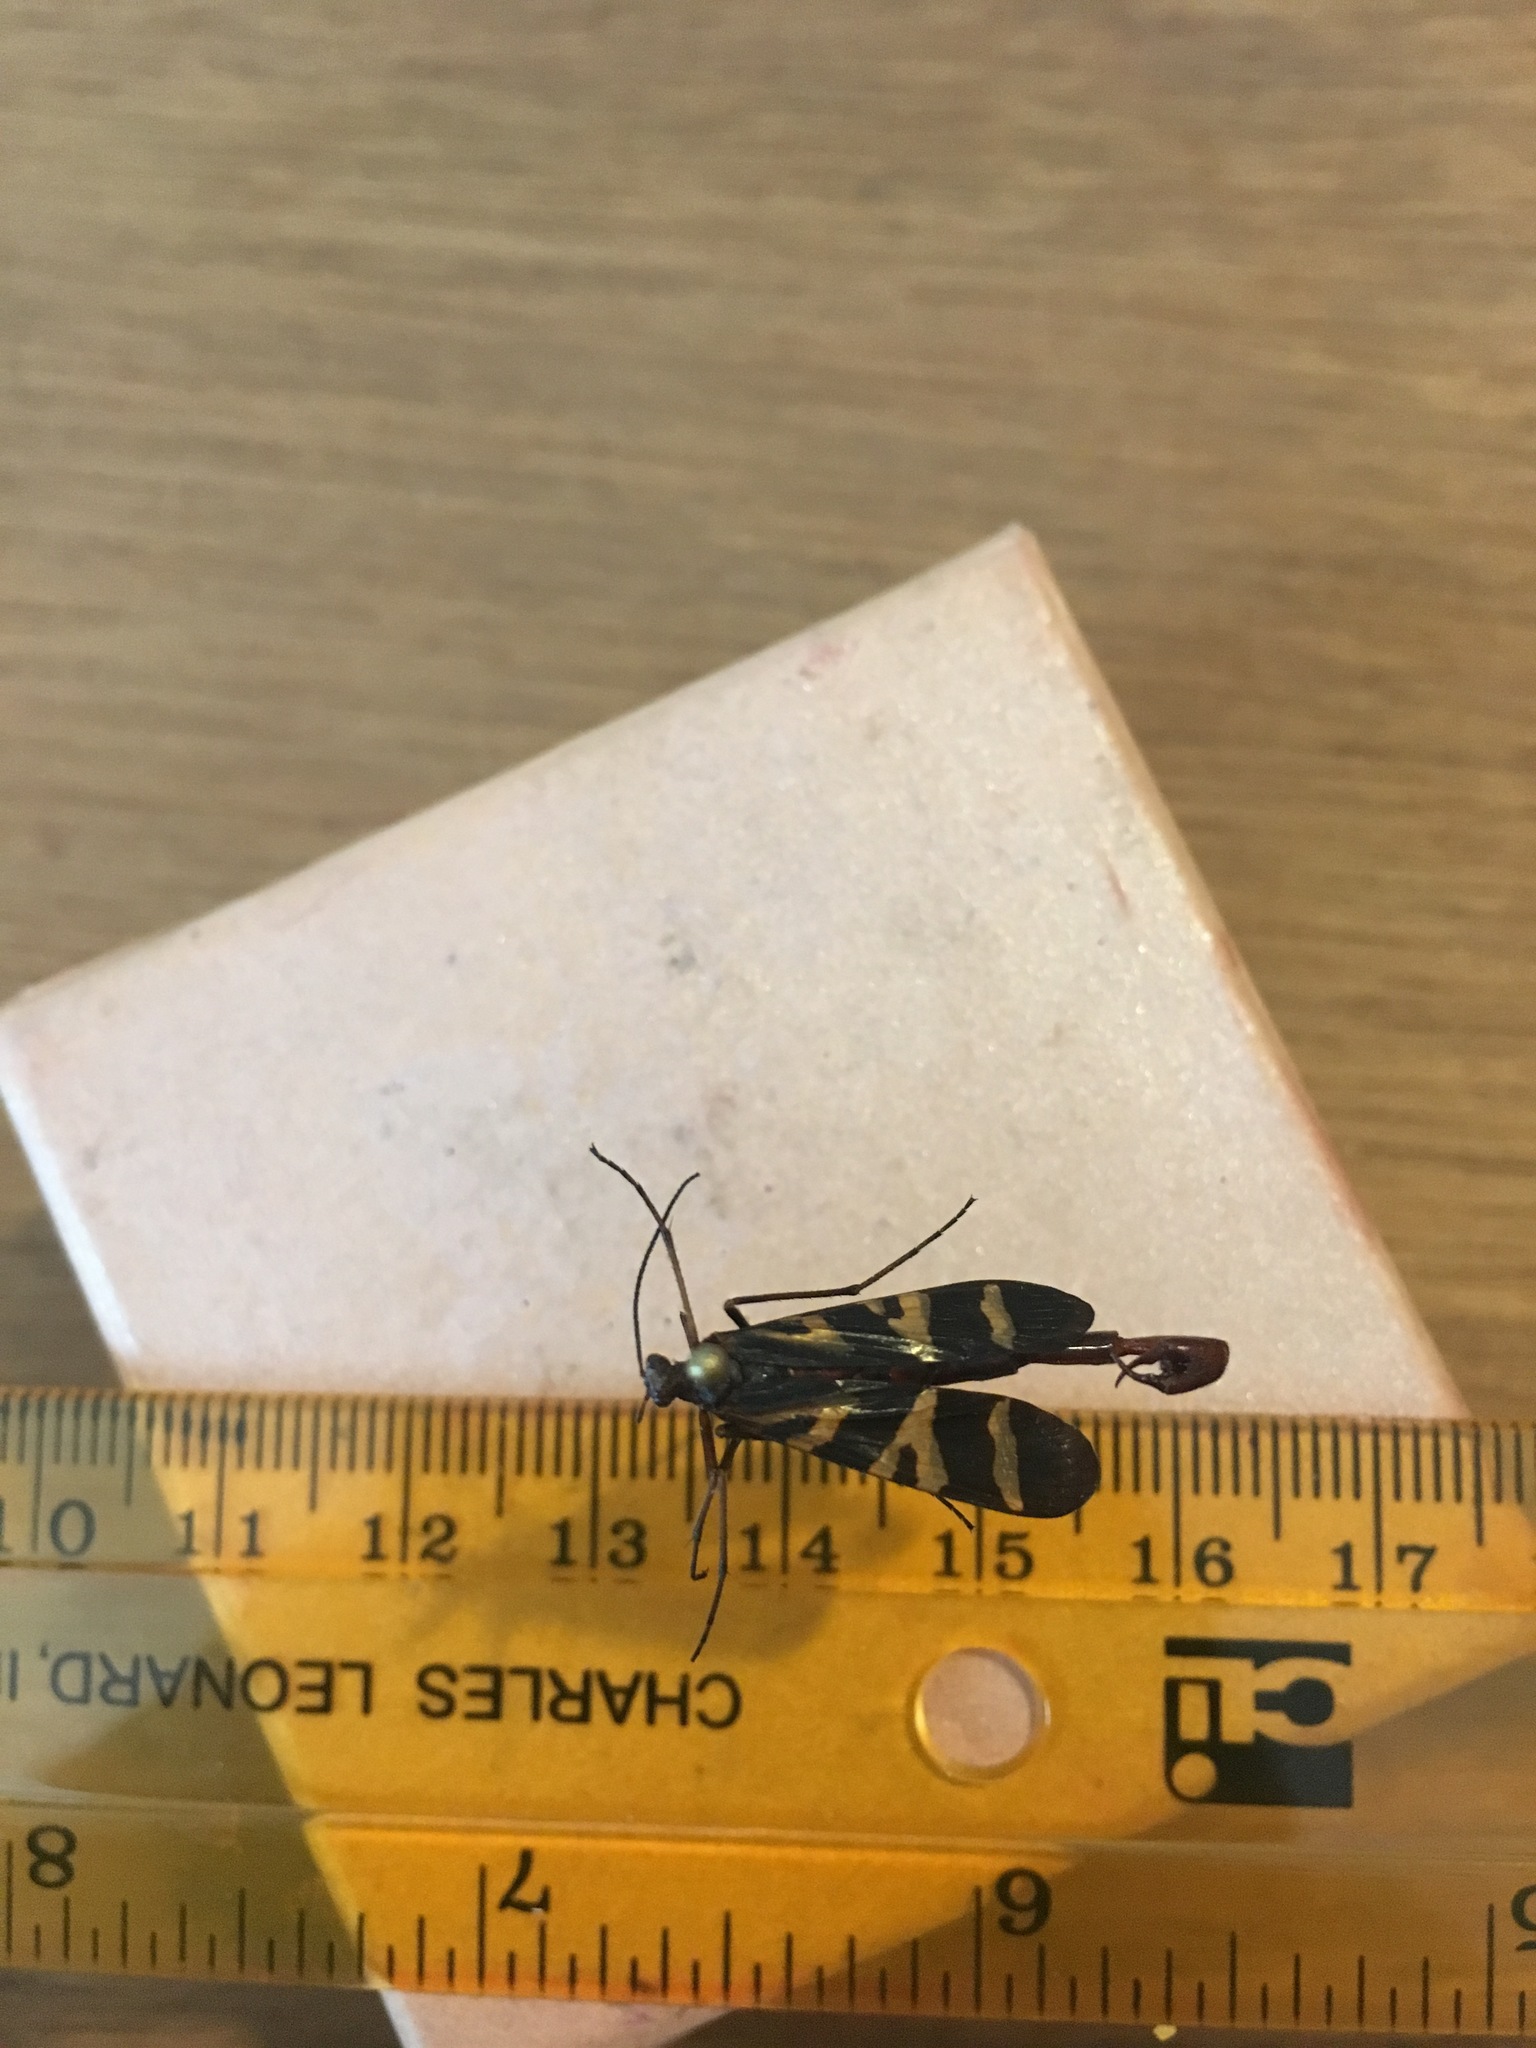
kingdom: Animalia
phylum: Arthropoda
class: Insecta
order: Mecoptera
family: Panorpidae
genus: Panorpa
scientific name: Panorpa nuptialis
